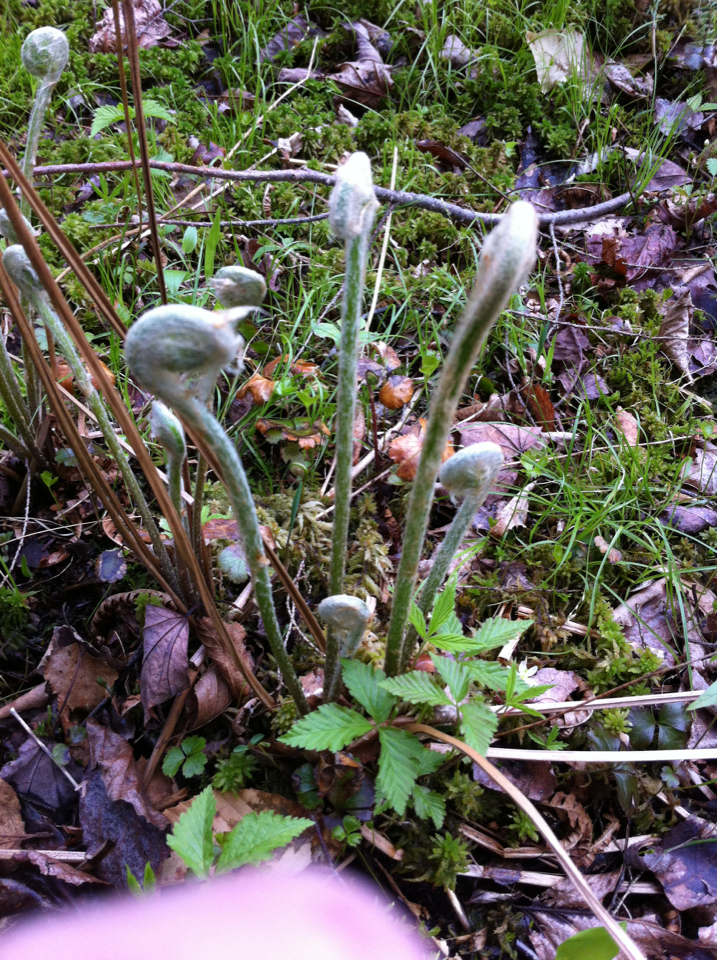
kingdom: Plantae
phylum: Tracheophyta
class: Polypodiopsida
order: Osmundales
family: Osmundaceae
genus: Osmundastrum
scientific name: Osmundastrum cinnamomeum
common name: Cinnamon fern
